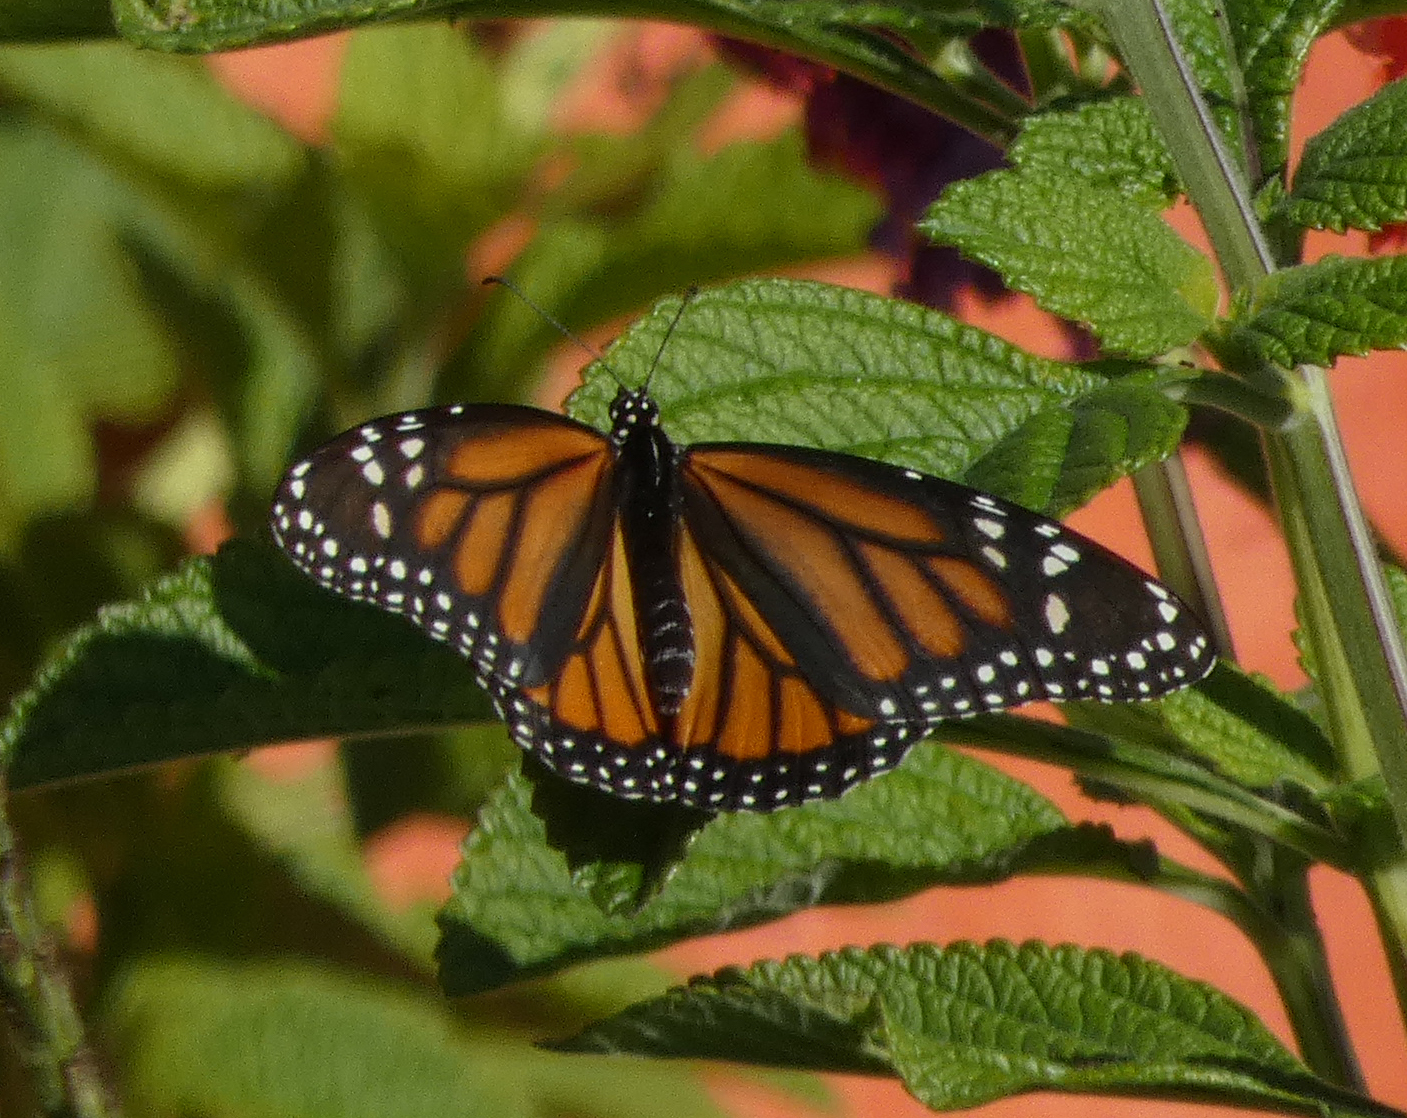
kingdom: Animalia
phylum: Arthropoda
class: Insecta
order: Lepidoptera
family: Nymphalidae
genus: Danaus
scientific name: Danaus plexippus
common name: Monarch
